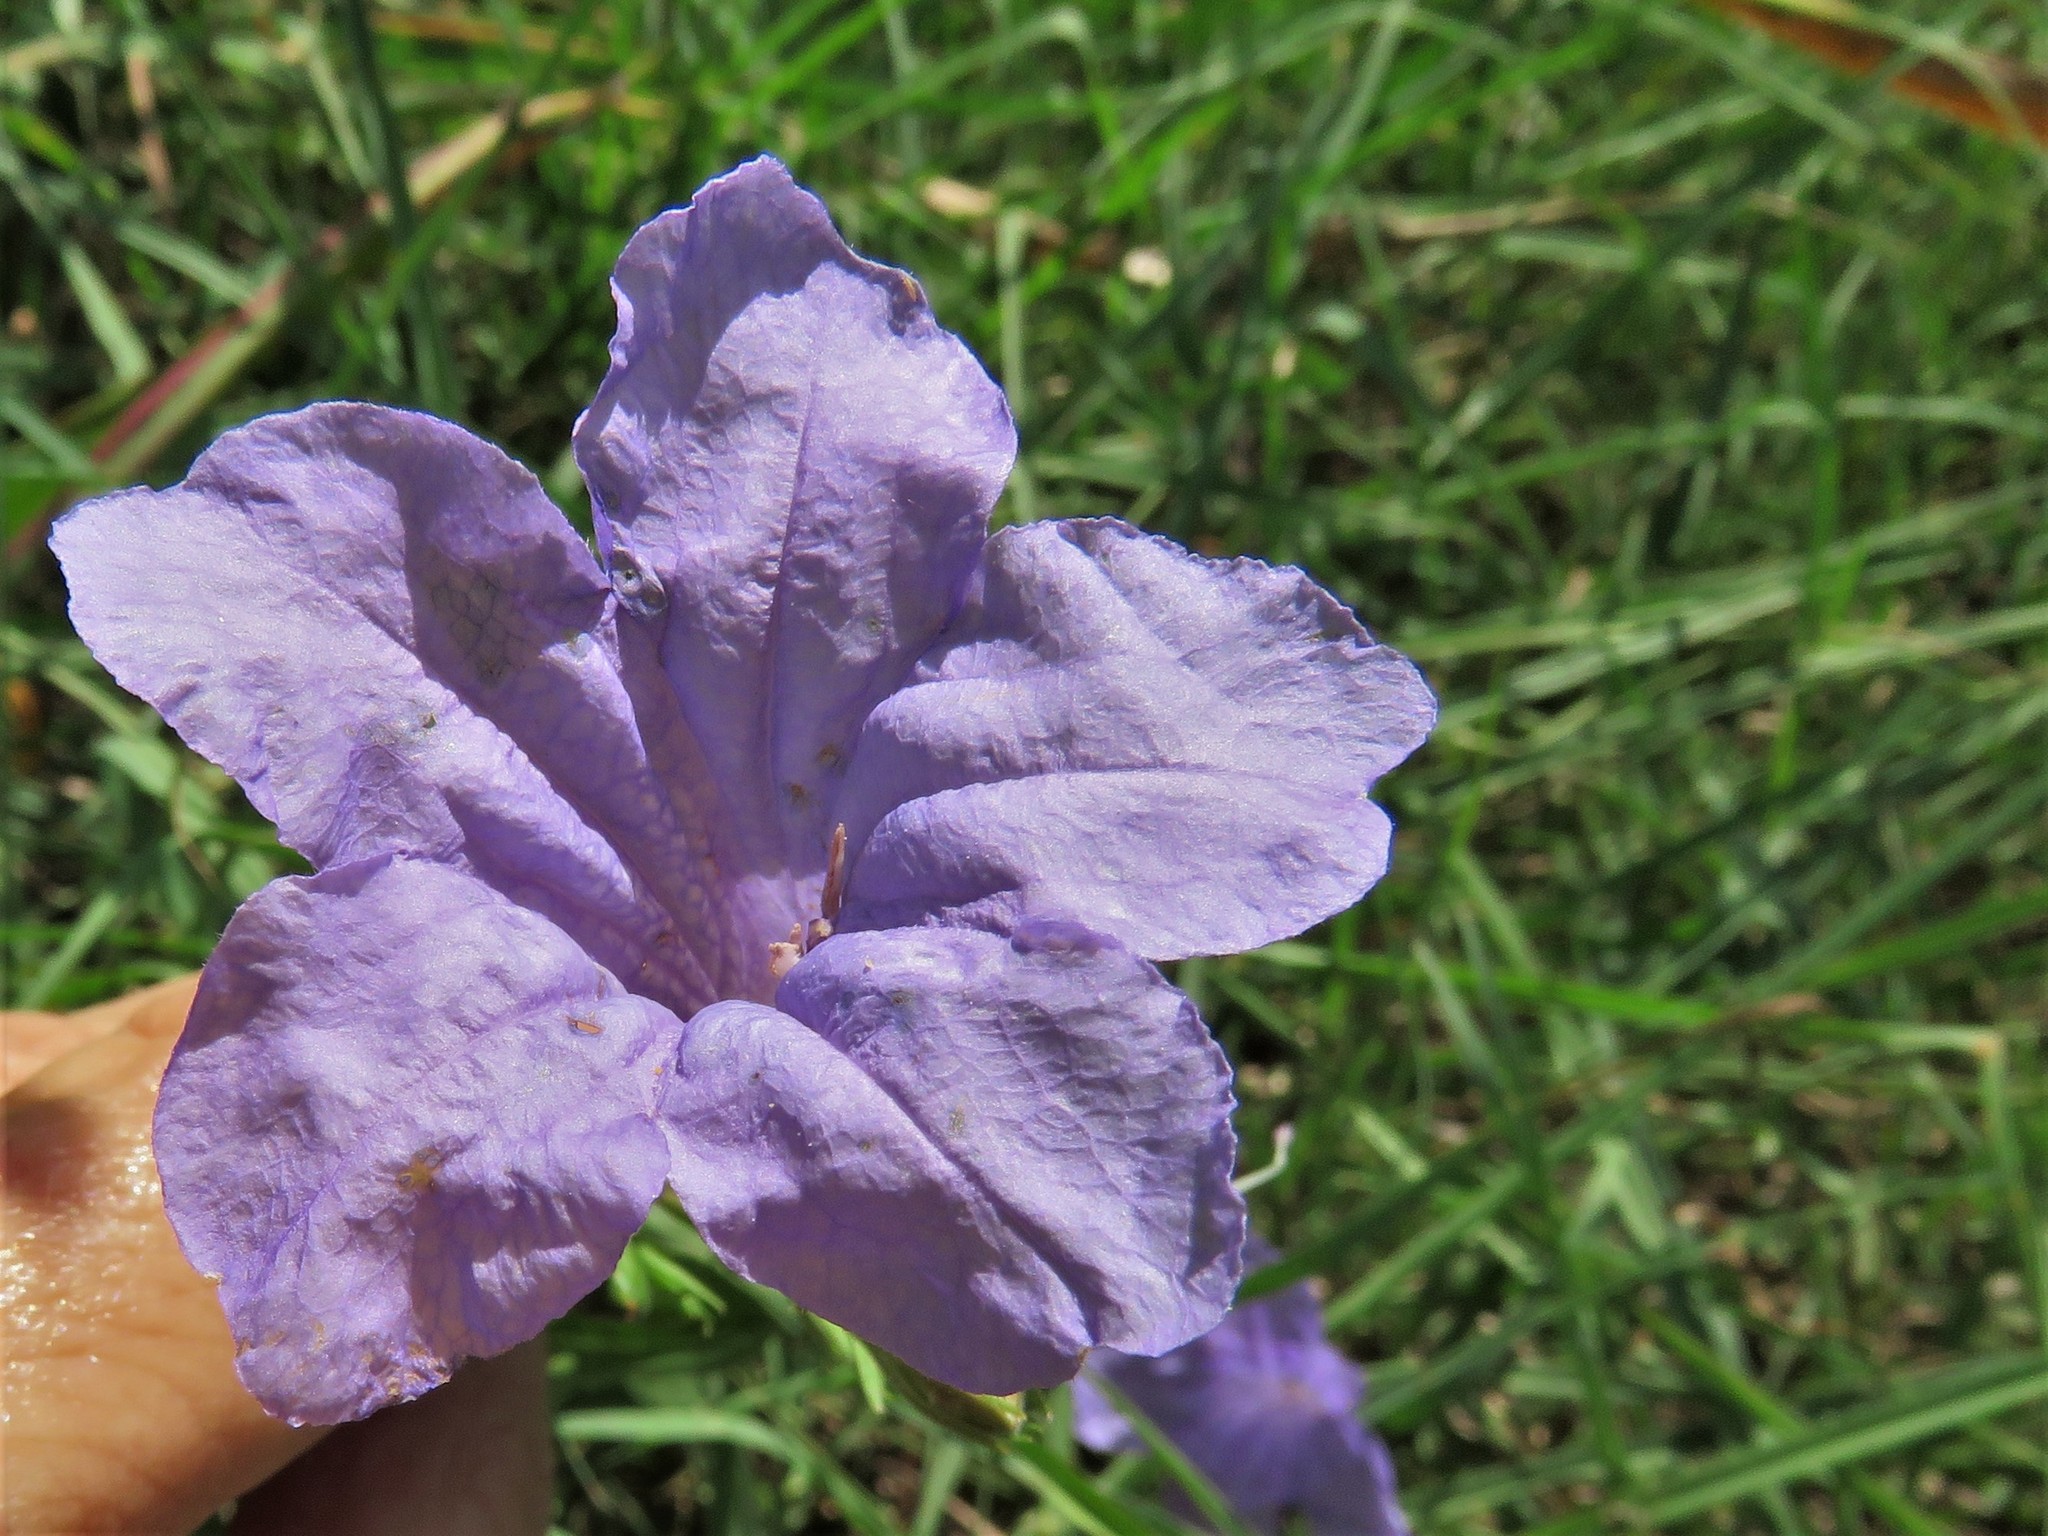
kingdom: Plantae
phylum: Tracheophyta
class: Magnoliopsida
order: Lamiales
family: Acanthaceae
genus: Ruellia
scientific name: Ruellia ciliatiflora
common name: Hairyflower wild petunia
